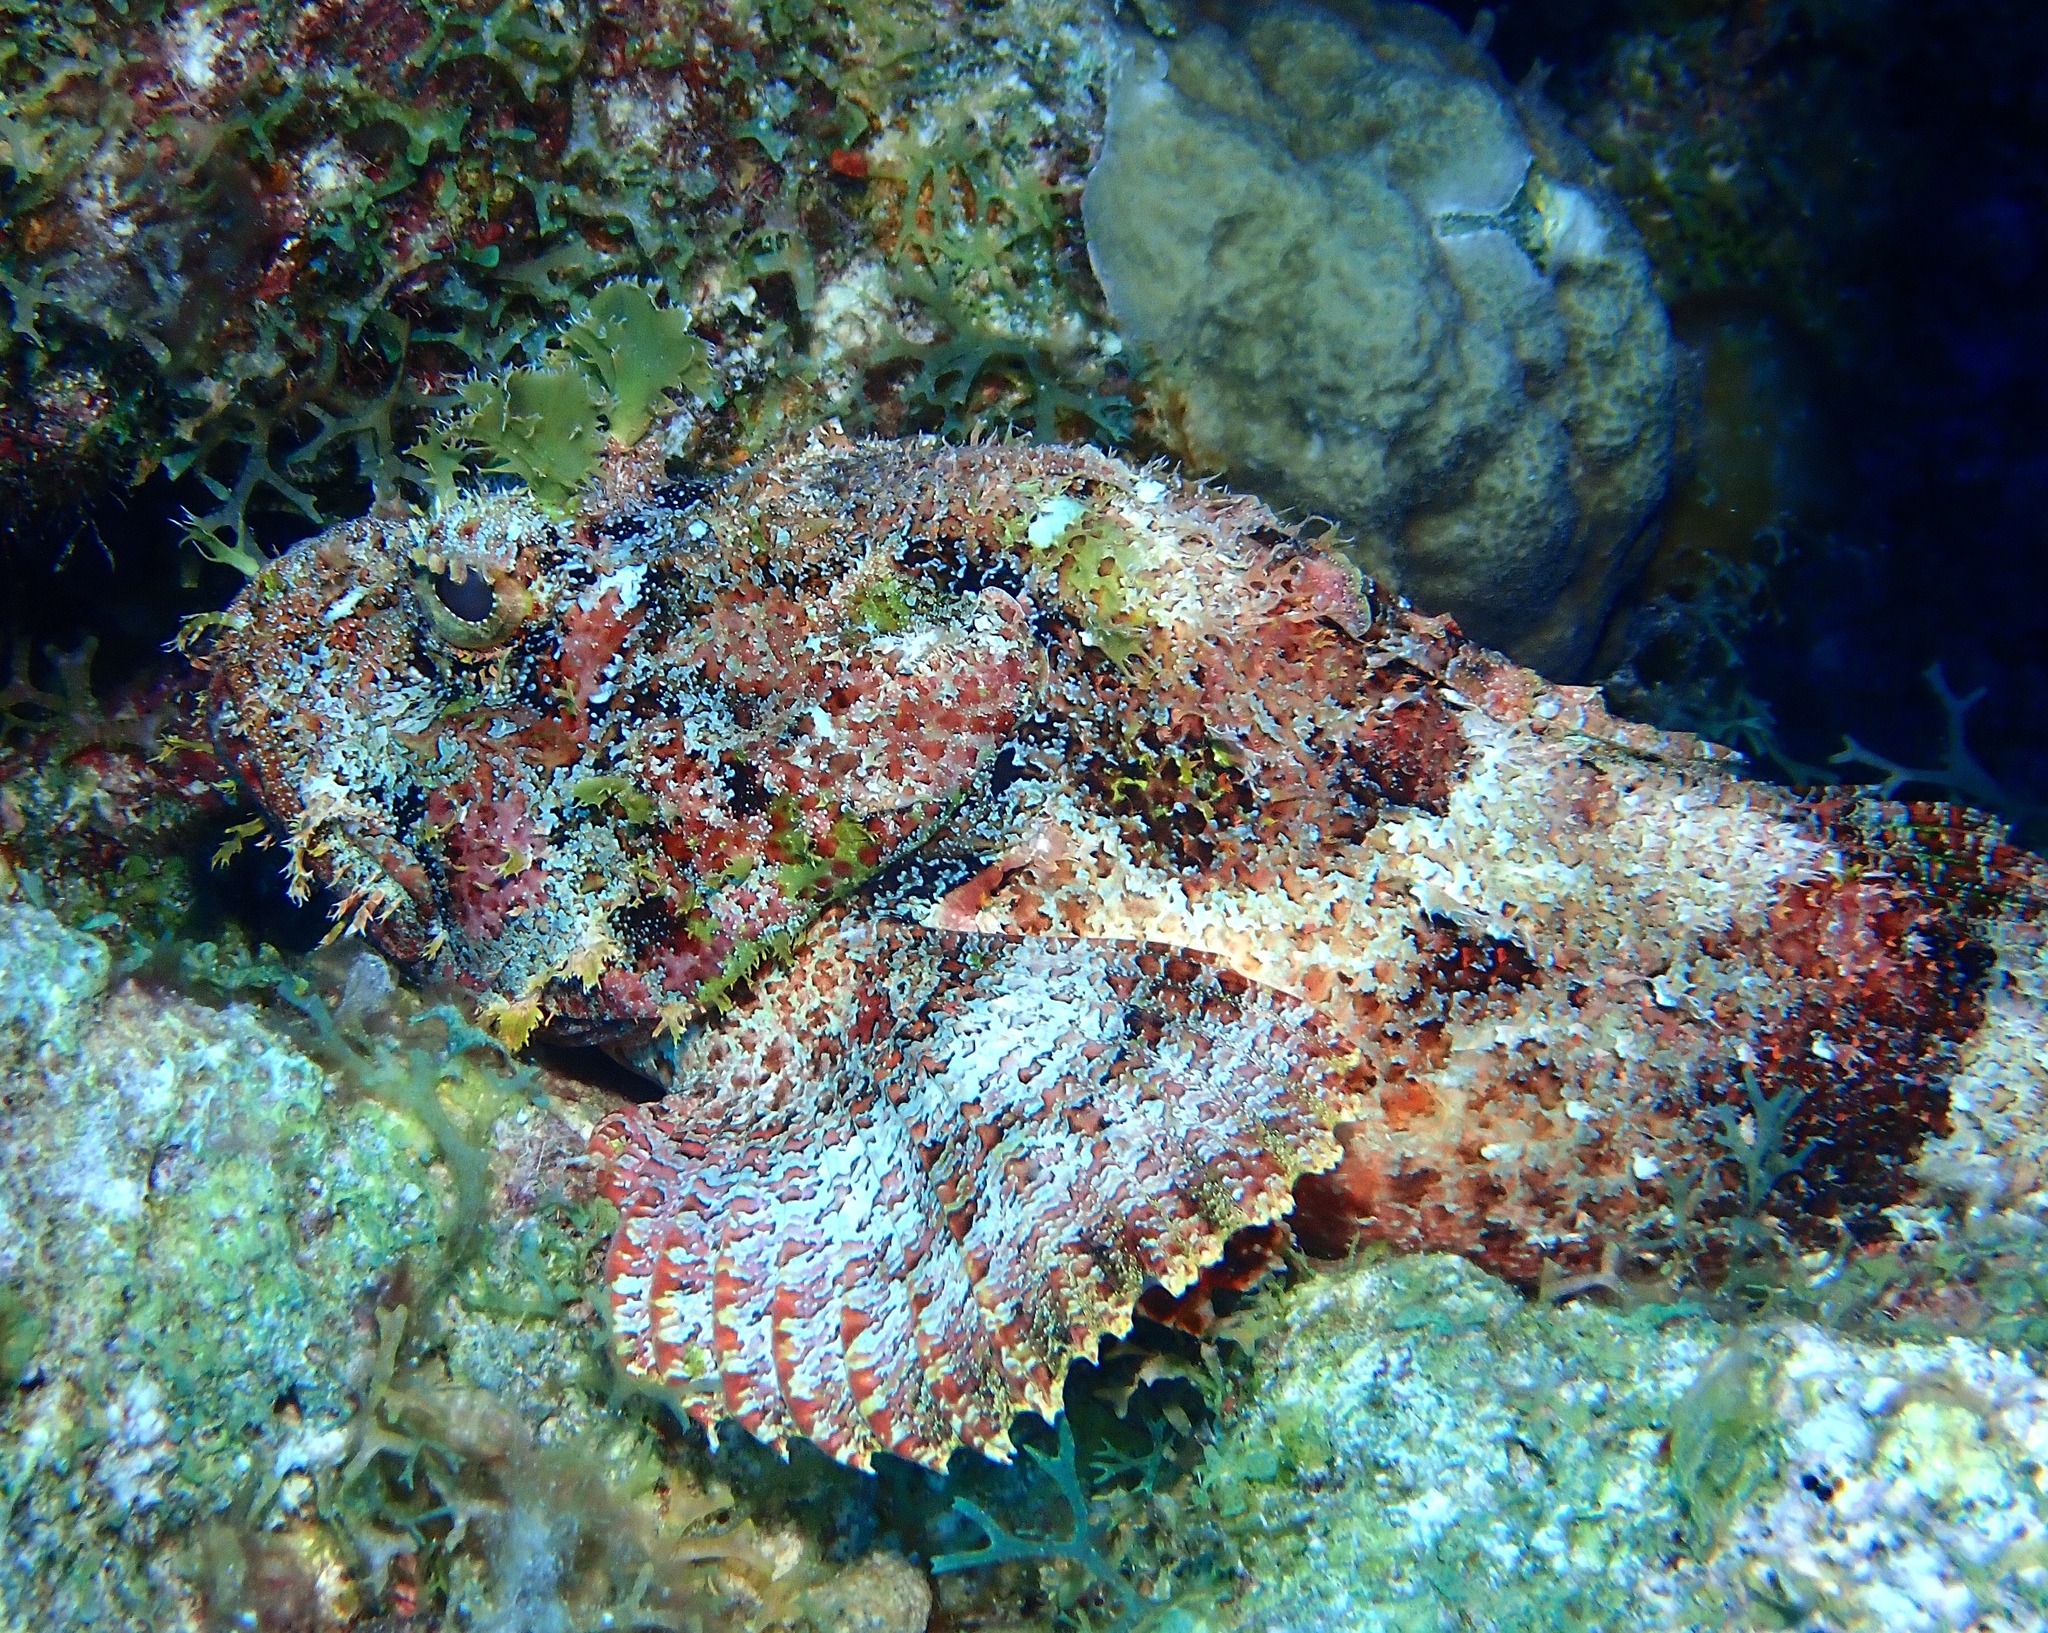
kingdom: Animalia
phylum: Chordata
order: Scorpaeniformes
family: Scorpaenidae
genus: Scorpaena
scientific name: Scorpaena plumieri
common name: Spotted scorpionfish
